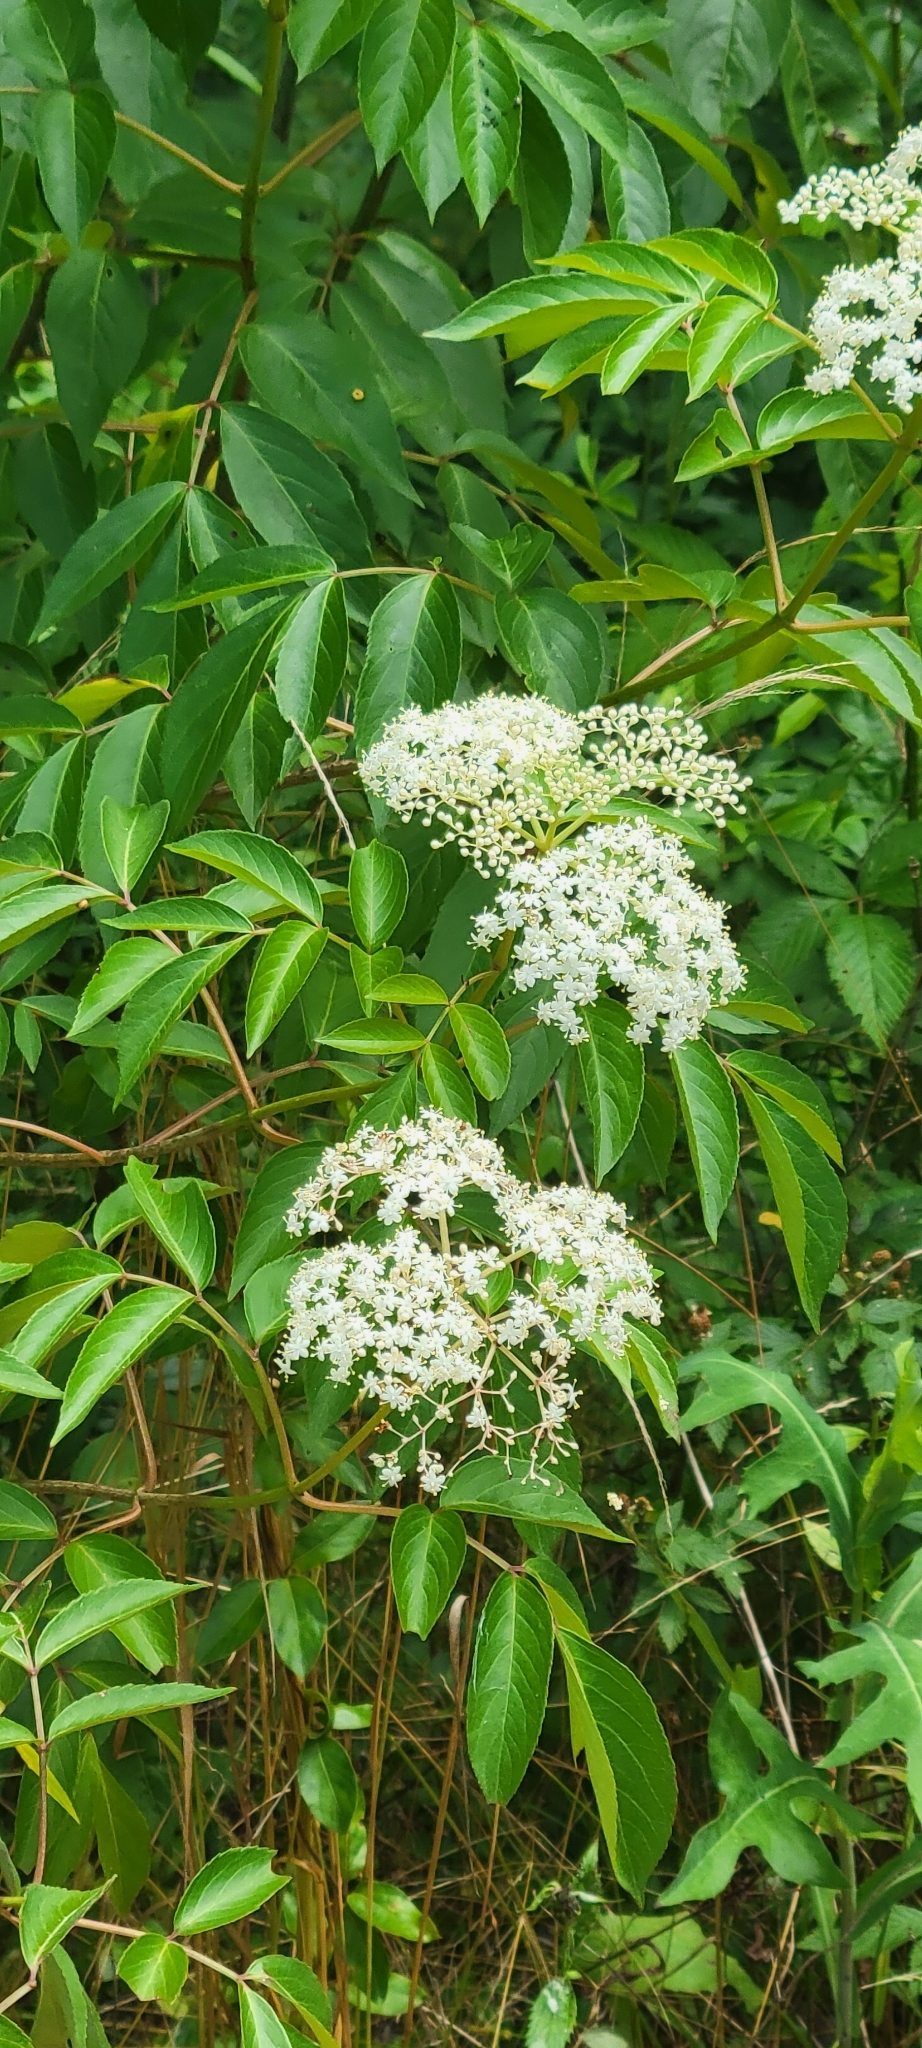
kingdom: Plantae
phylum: Tracheophyta
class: Magnoliopsida
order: Dipsacales
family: Viburnaceae
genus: Sambucus
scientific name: Sambucus canadensis
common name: American elder
